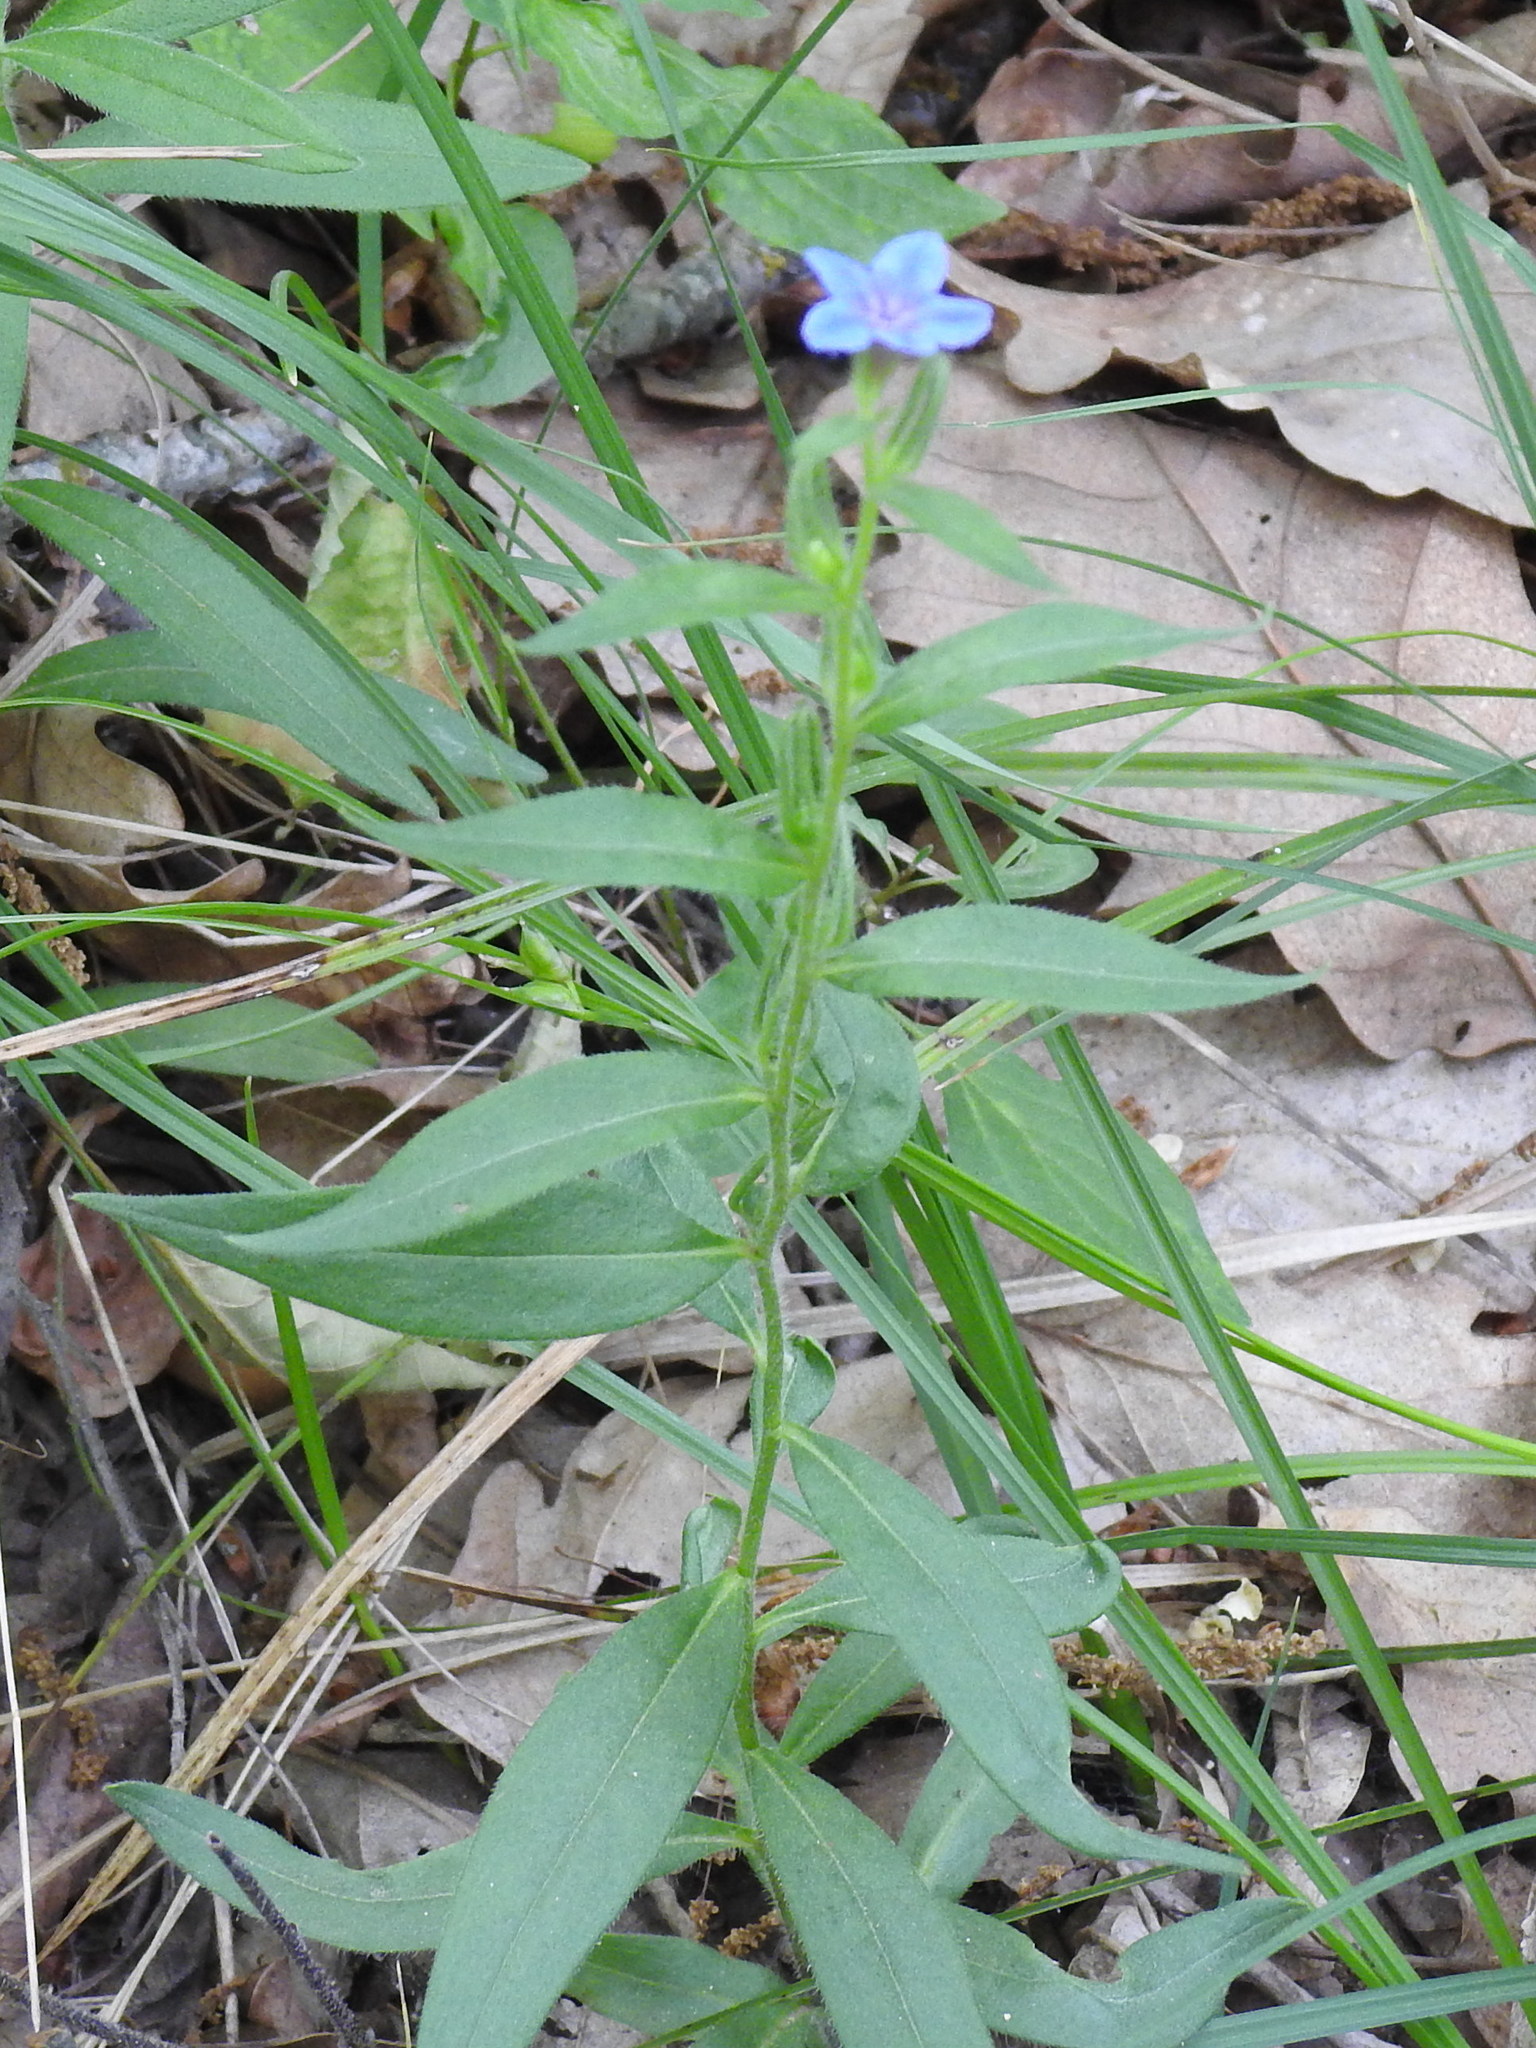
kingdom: Plantae
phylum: Tracheophyta
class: Magnoliopsida
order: Boraginales
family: Boraginaceae
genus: Aegonychon
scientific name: Aegonychon purpurocaeruleum
